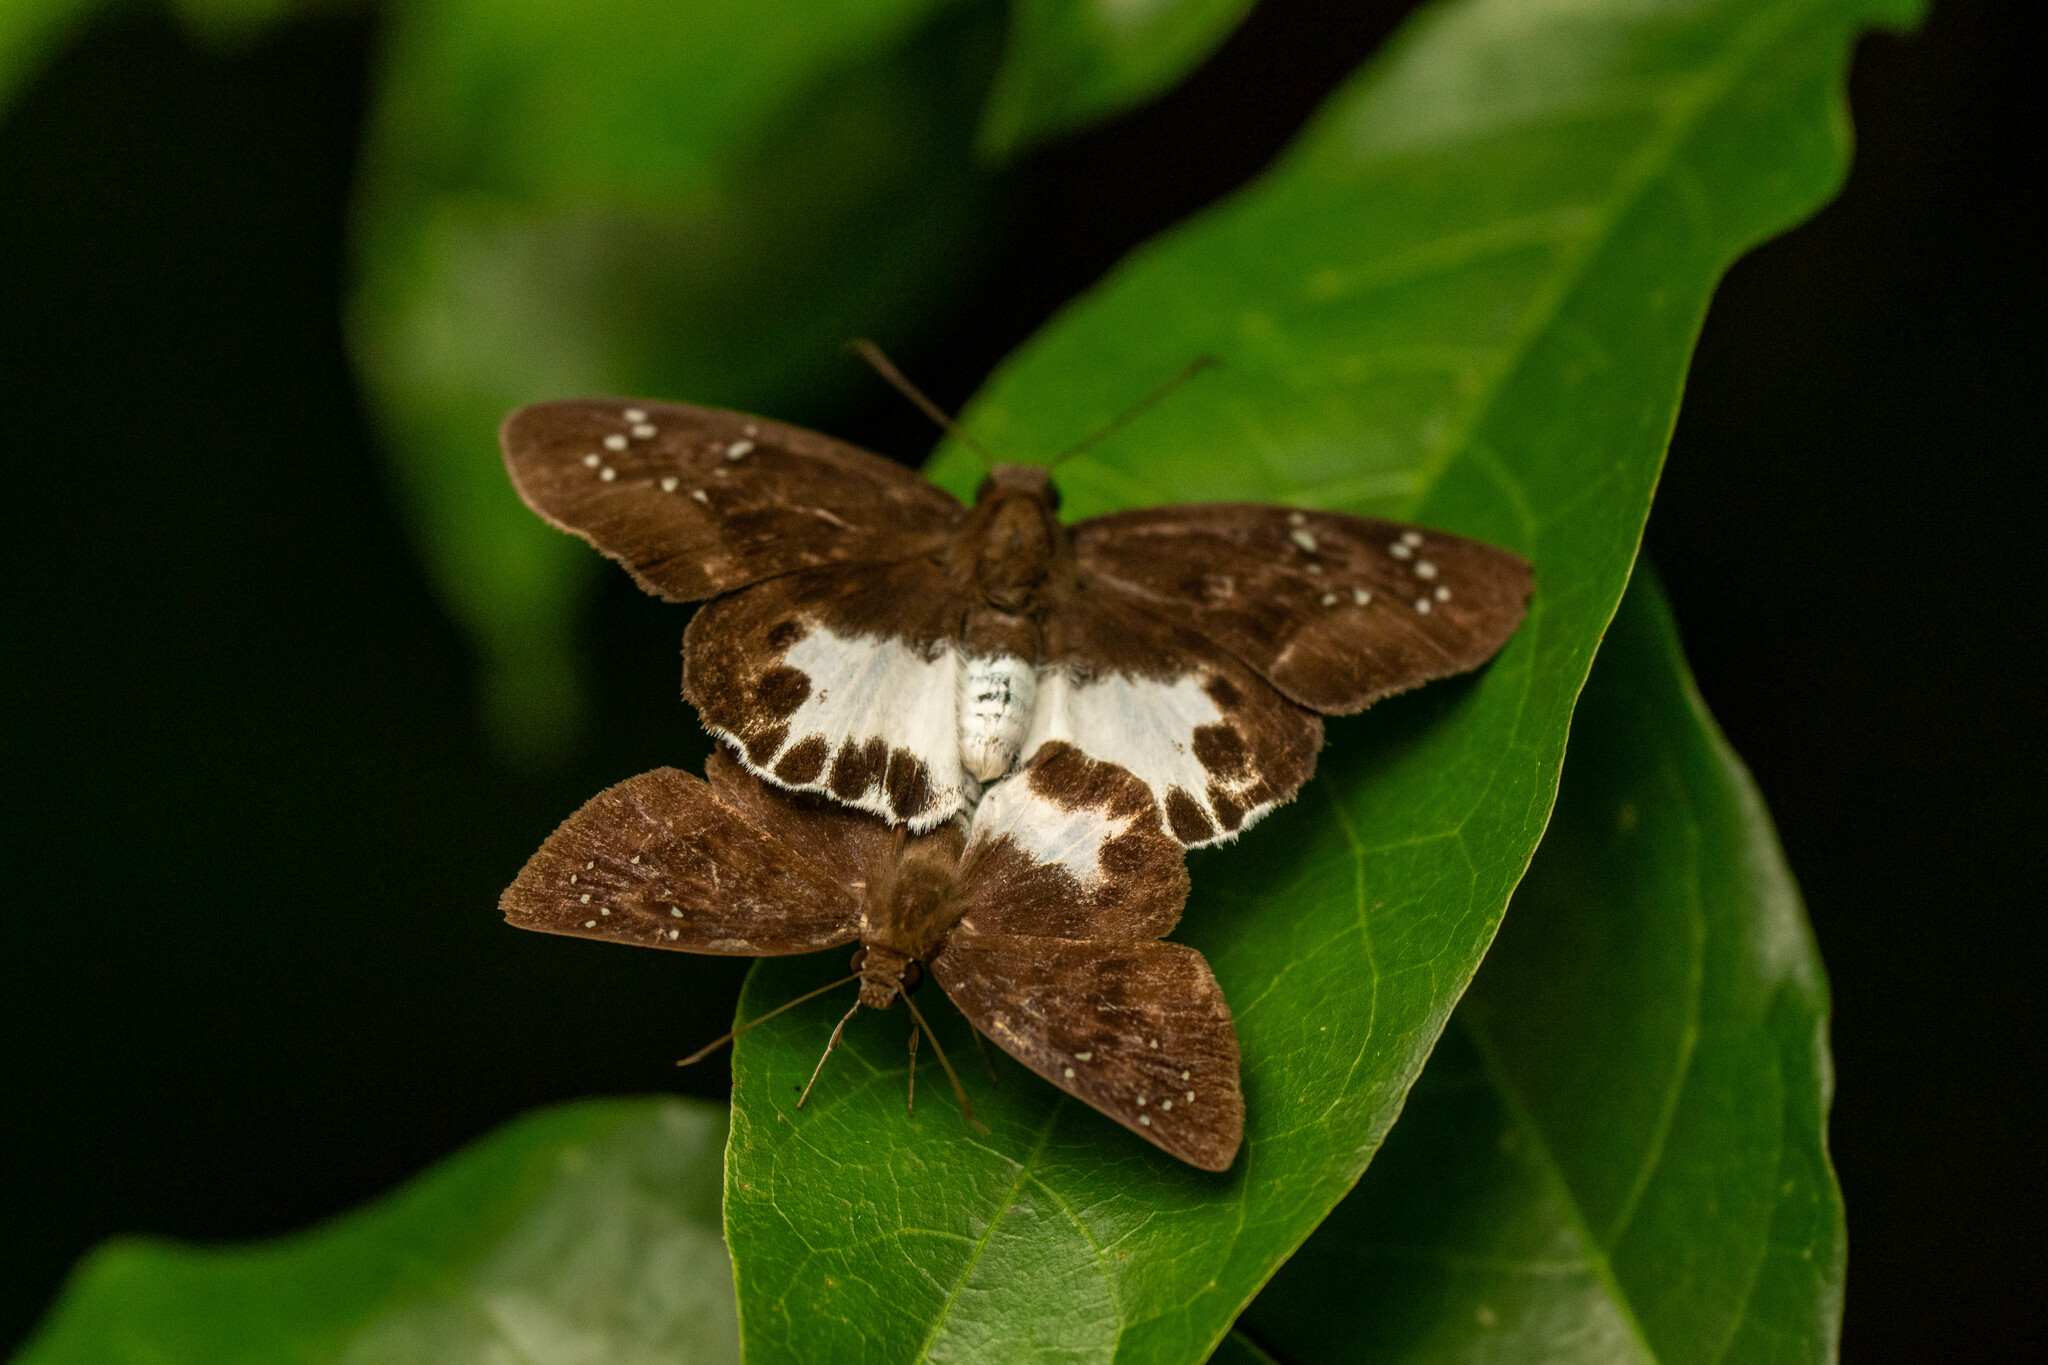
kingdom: Animalia
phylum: Arthropoda
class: Insecta
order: Lepidoptera
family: Hesperiidae
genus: Tagiades
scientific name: Tagiades litigiosa
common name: Water snow flat
